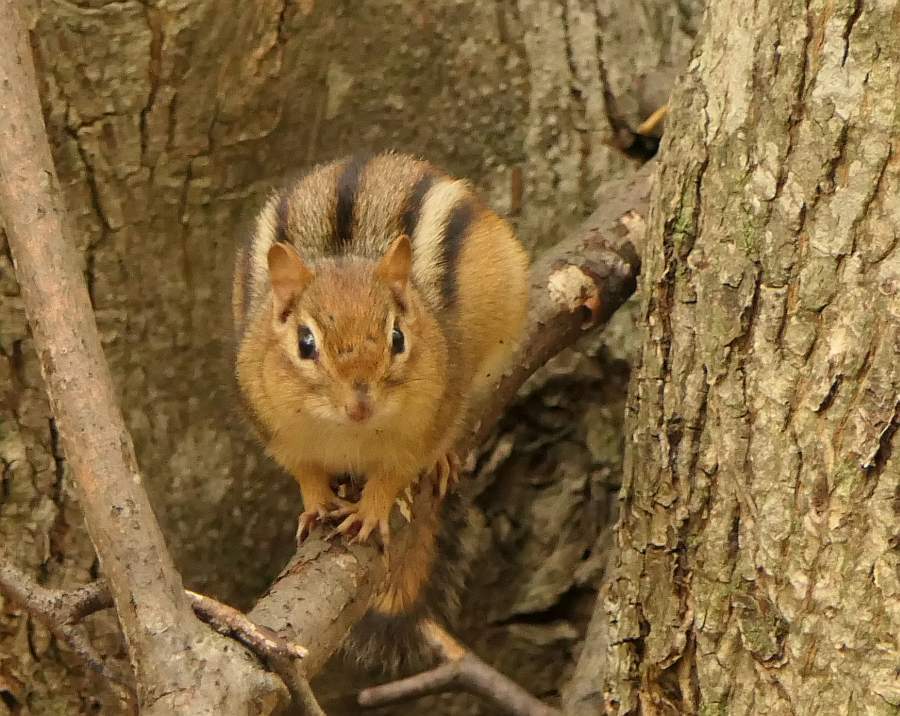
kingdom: Animalia
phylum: Chordata
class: Mammalia
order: Rodentia
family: Sciuridae
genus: Tamias
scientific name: Tamias striatus
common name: Eastern chipmunk
